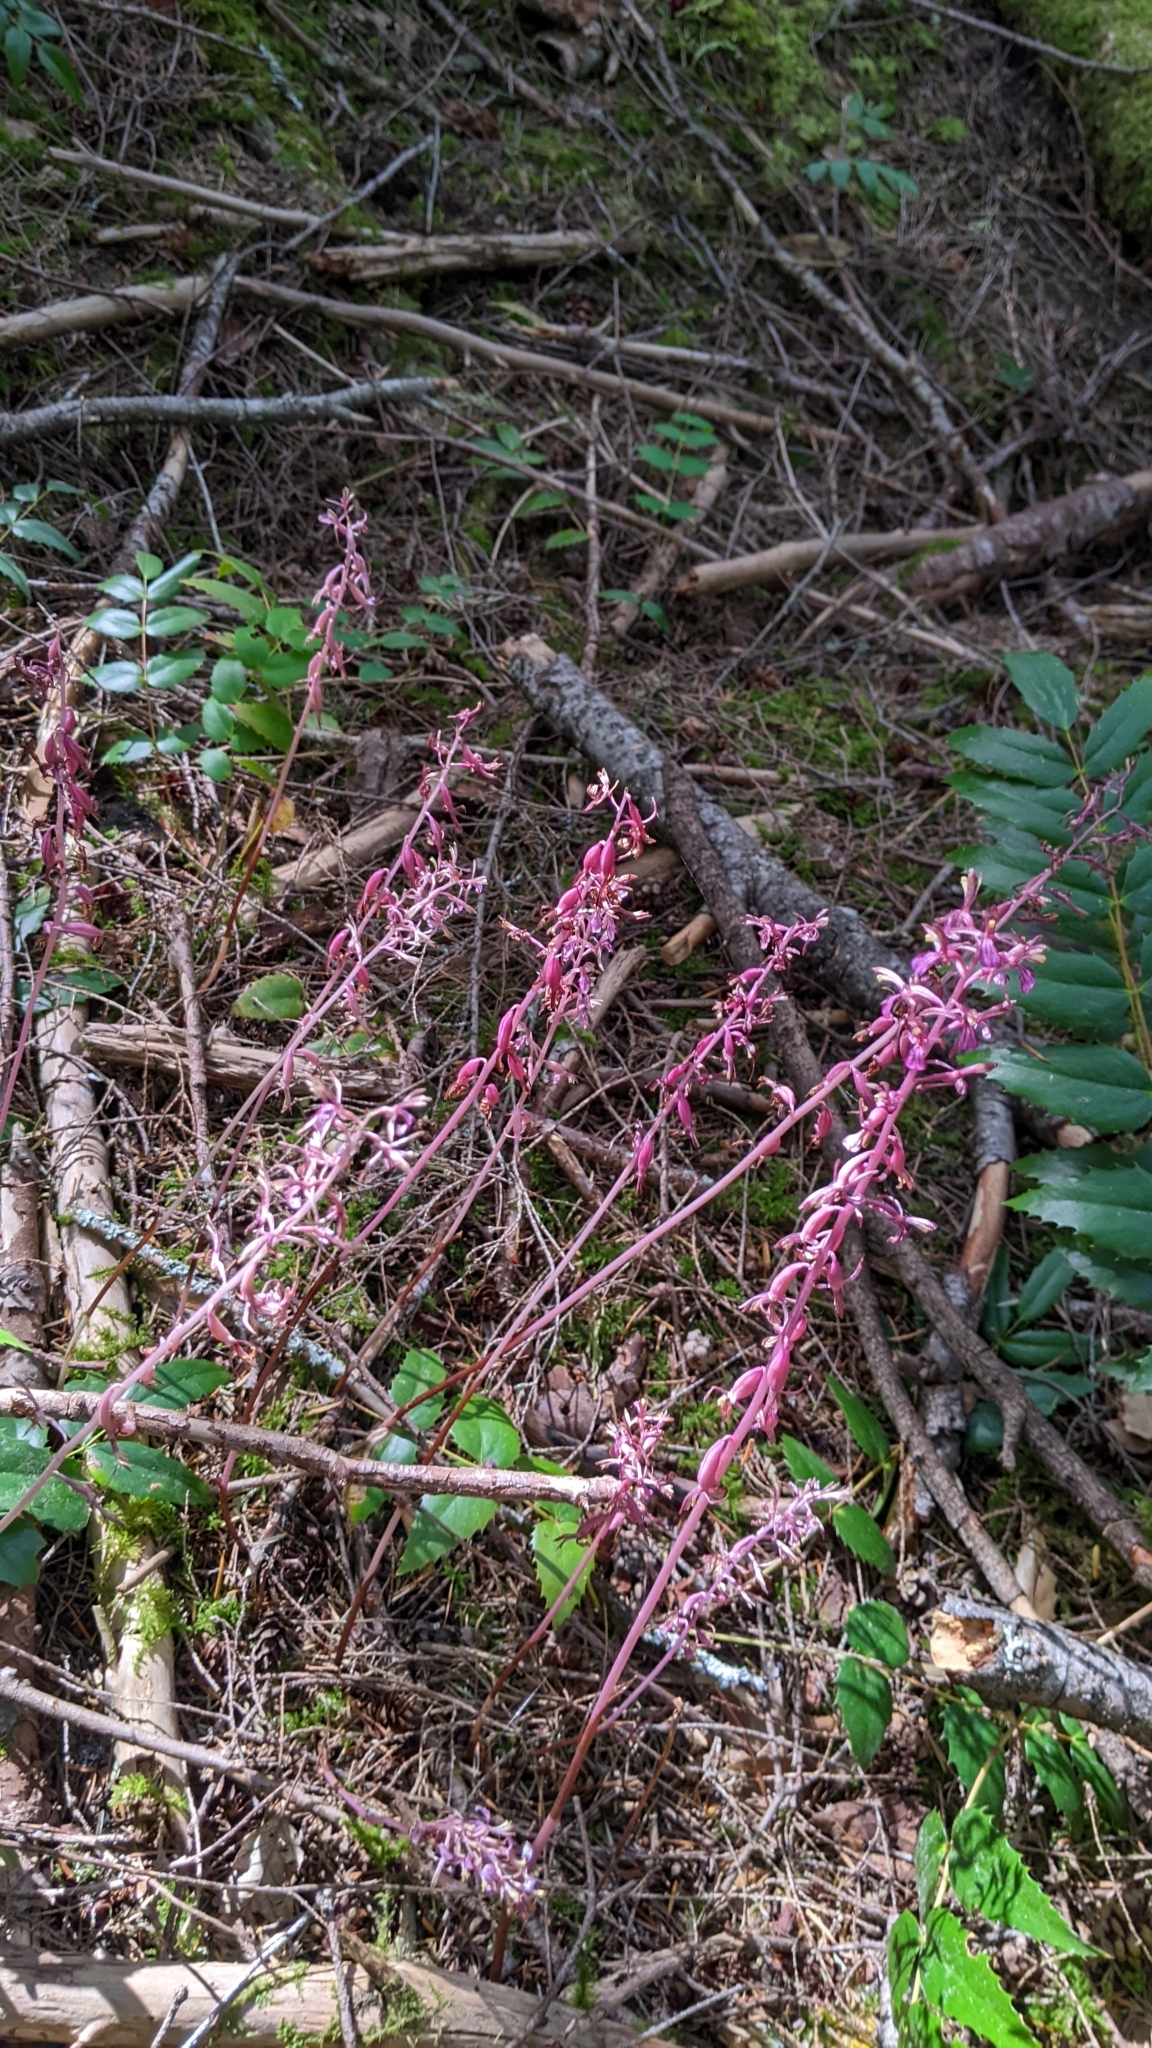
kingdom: Plantae
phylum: Tracheophyta
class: Liliopsida
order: Asparagales
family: Orchidaceae
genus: Corallorhiza
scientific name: Corallorhiza mertensiana
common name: Pacific coralroot
